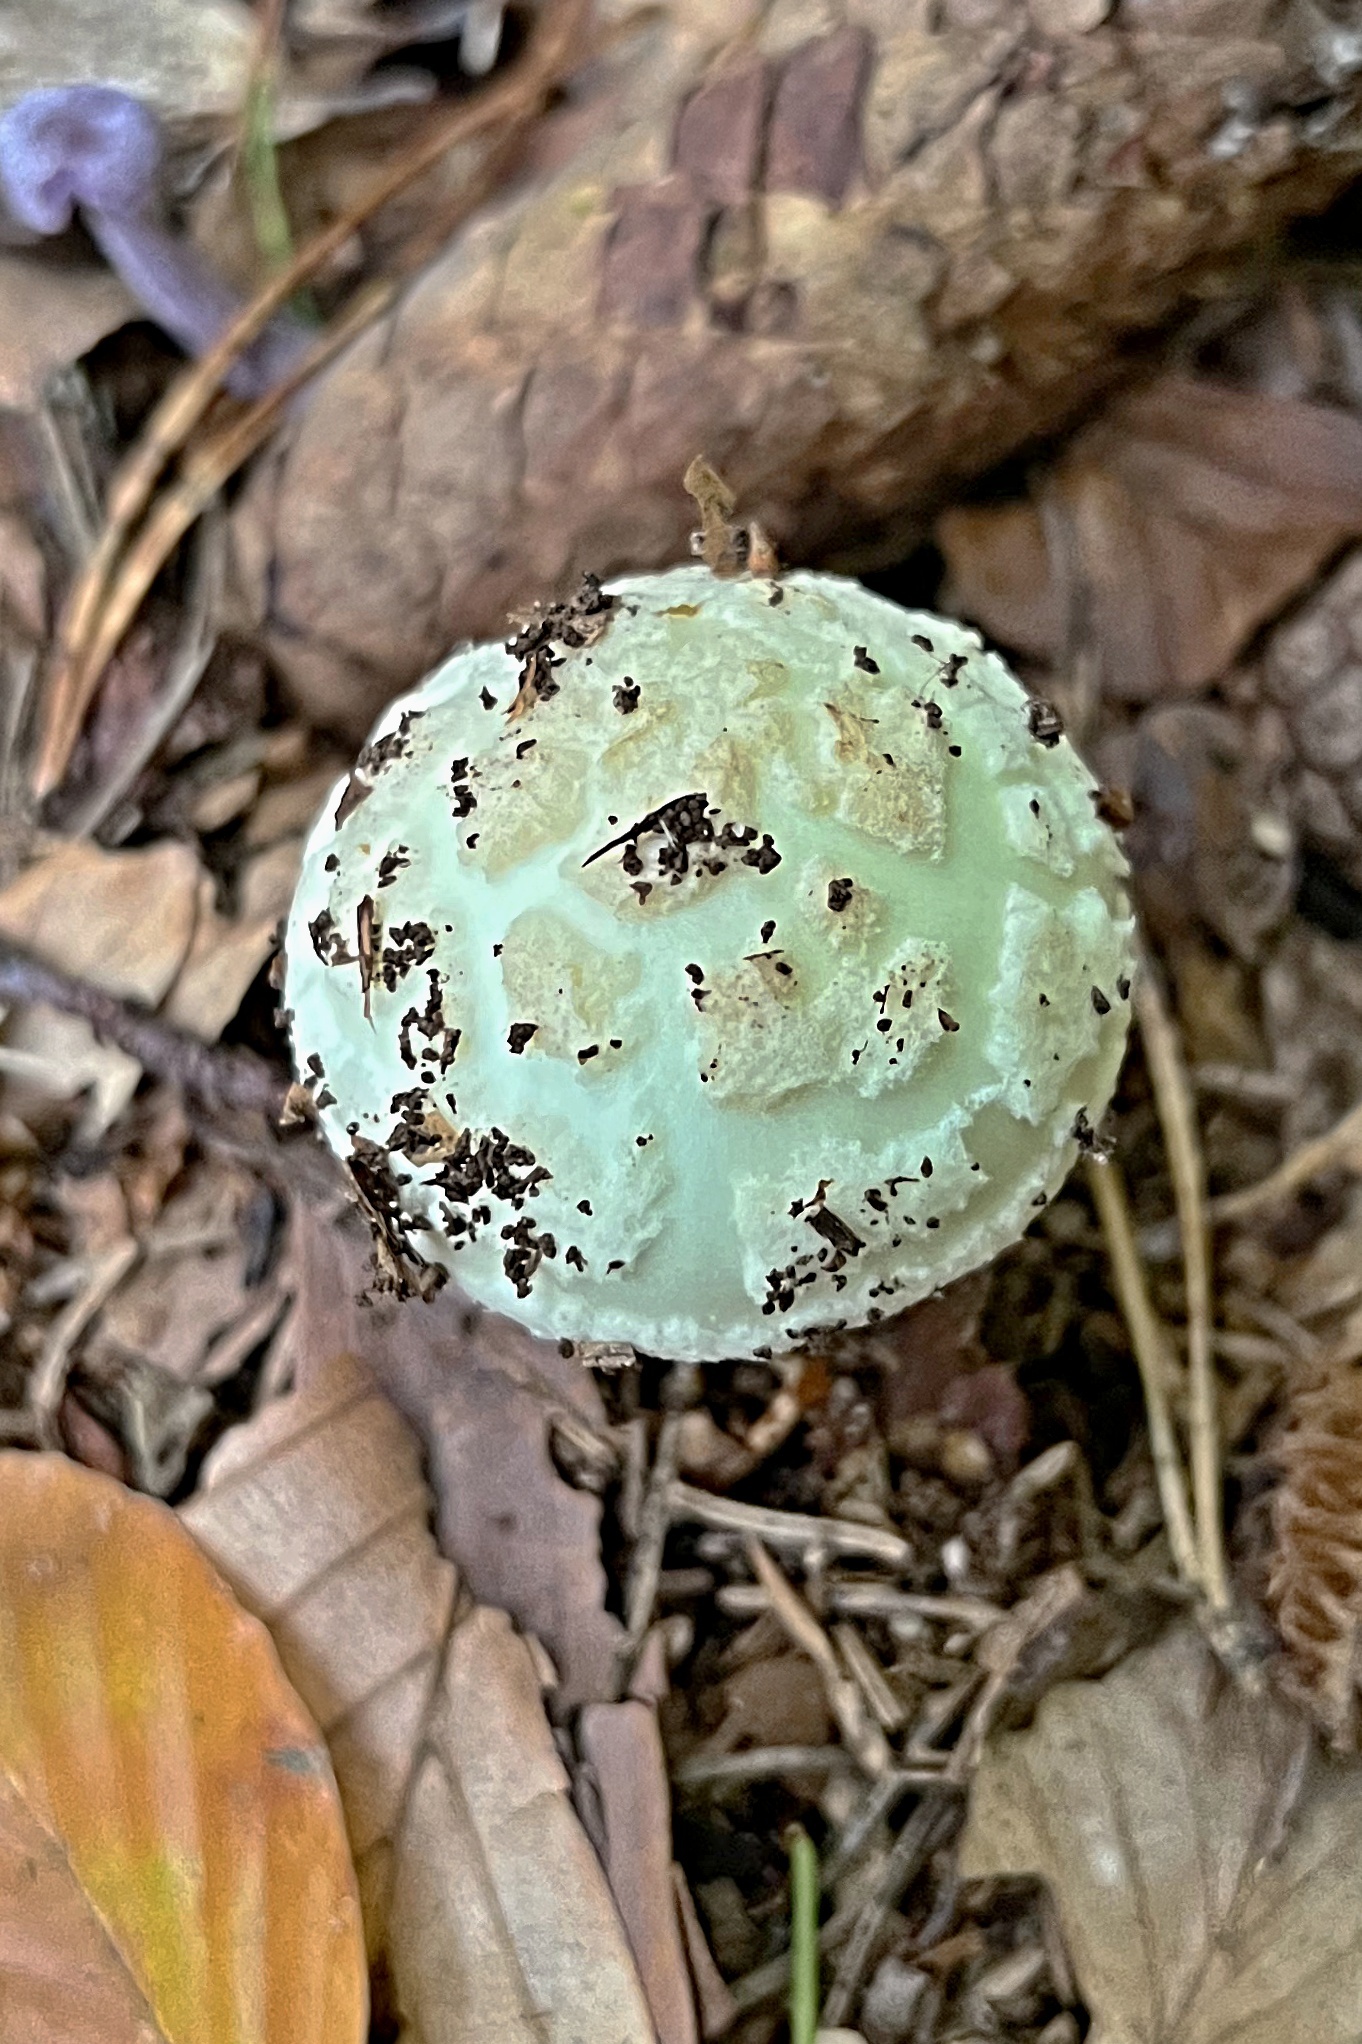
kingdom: Fungi
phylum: Basidiomycota
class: Agaricomycetes
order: Agaricales
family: Amanitaceae
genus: Amanita
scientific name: Amanita citrina
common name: False death-cap
